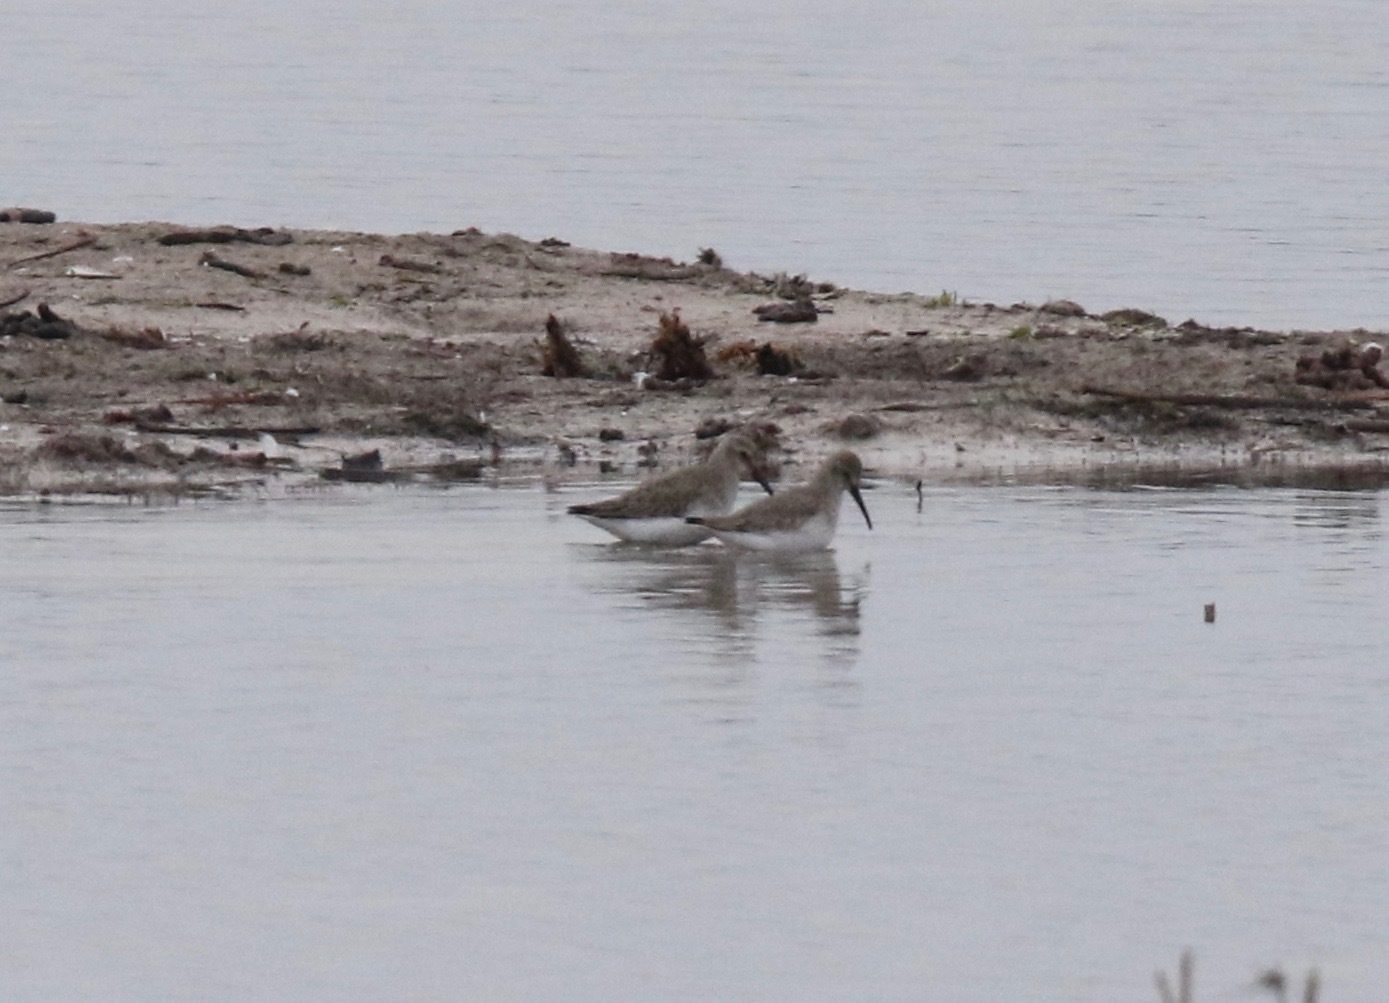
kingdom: Animalia
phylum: Chordata
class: Aves
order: Charadriiformes
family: Scolopacidae
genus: Calidris
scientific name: Calidris alpina
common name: Dunlin
